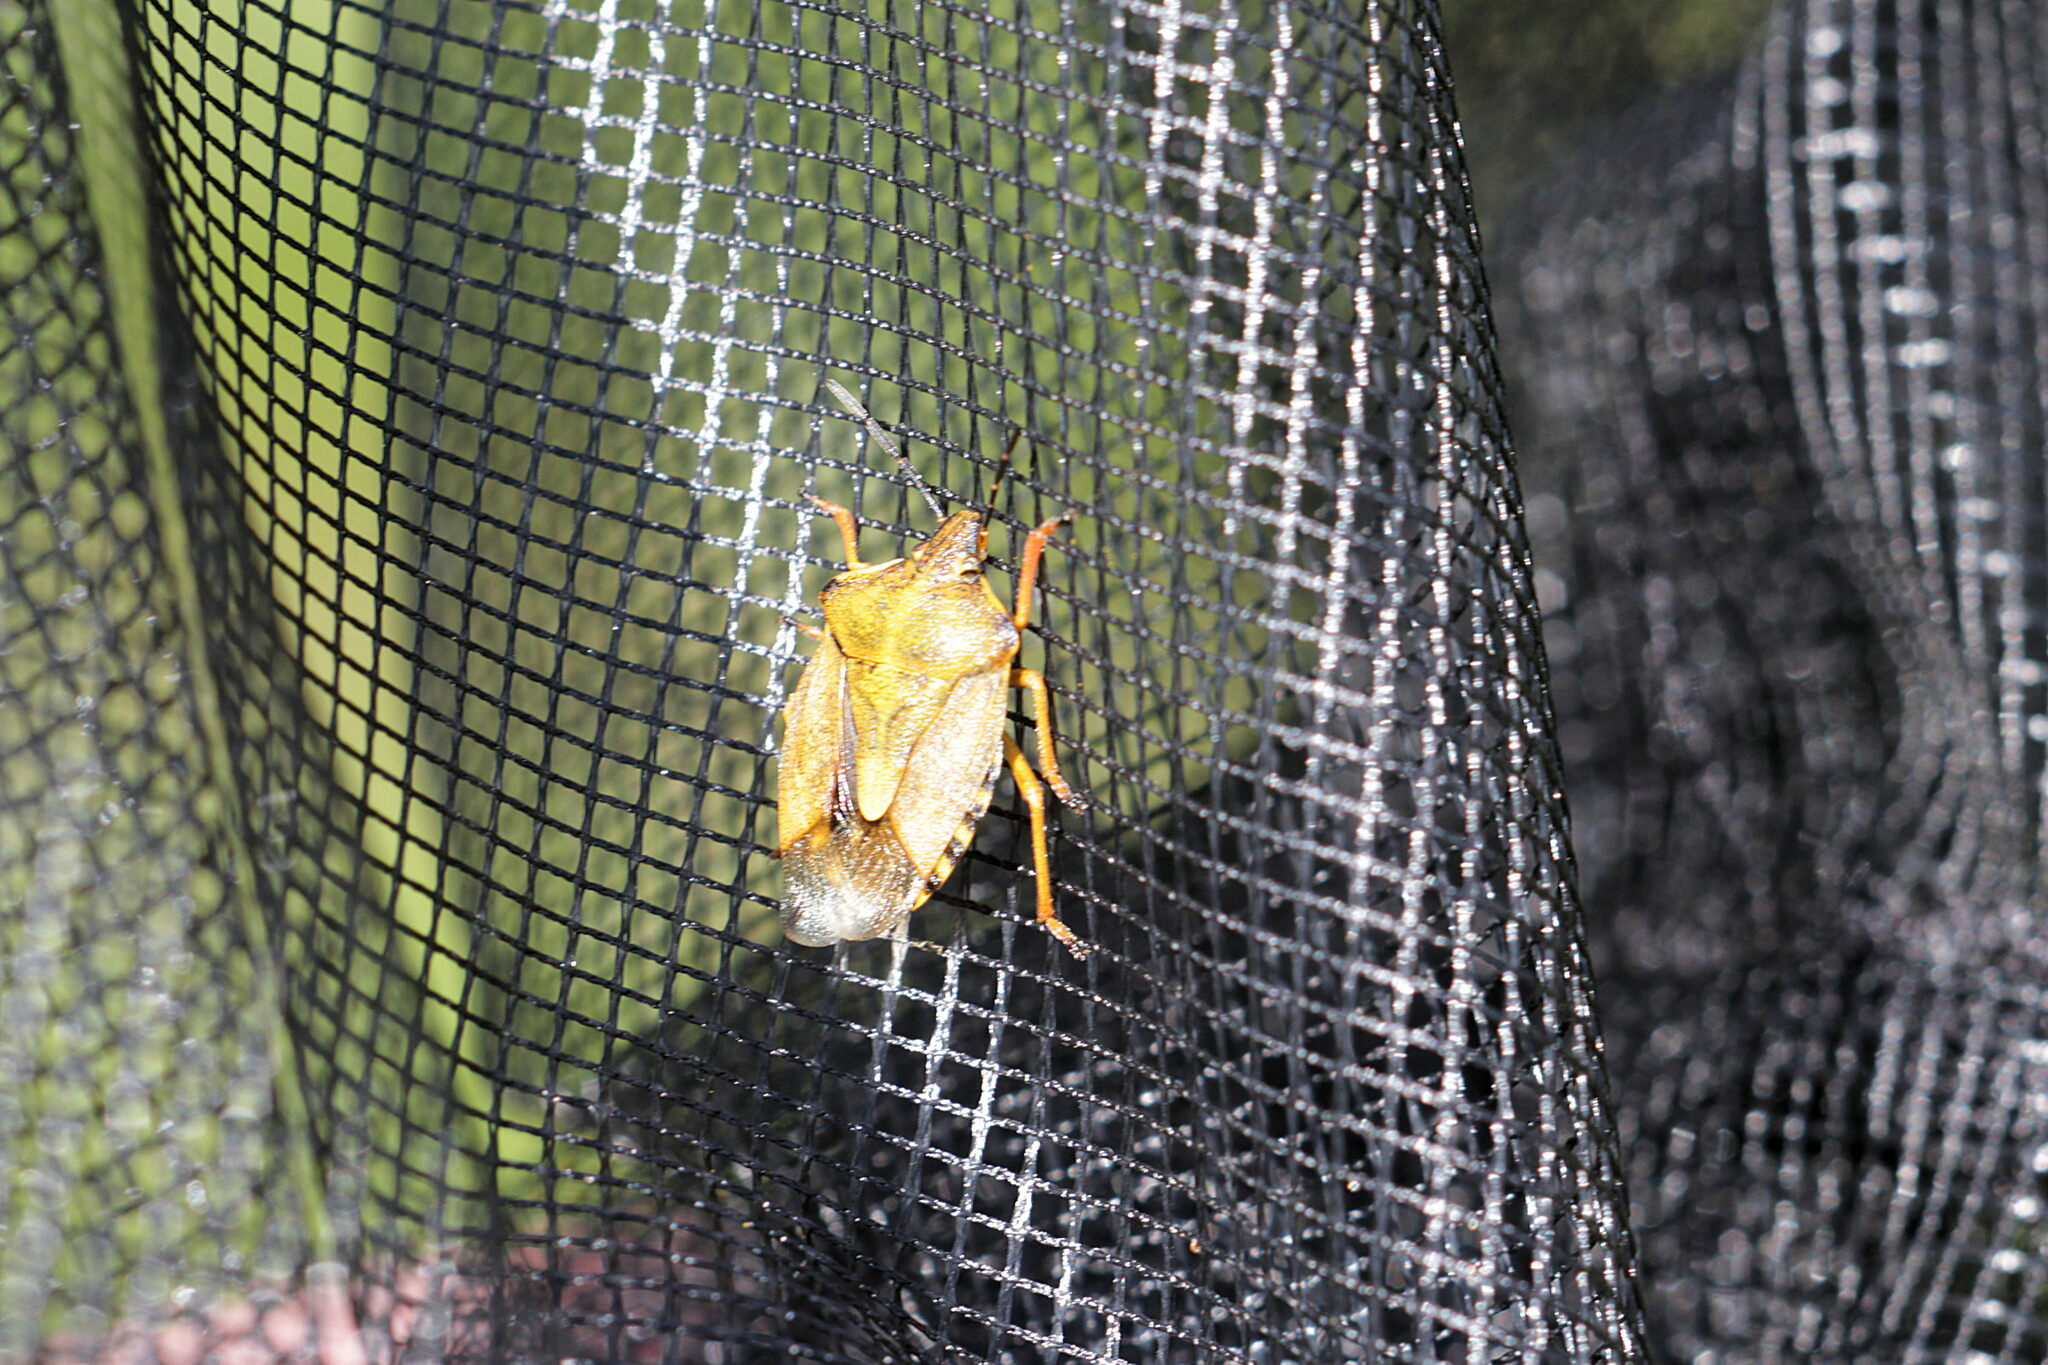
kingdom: Animalia
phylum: Arthropoda
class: Insecta
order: Hemiptera
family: Pentatomidae
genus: Carpocoris
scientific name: Carpocoris purpureipennis
